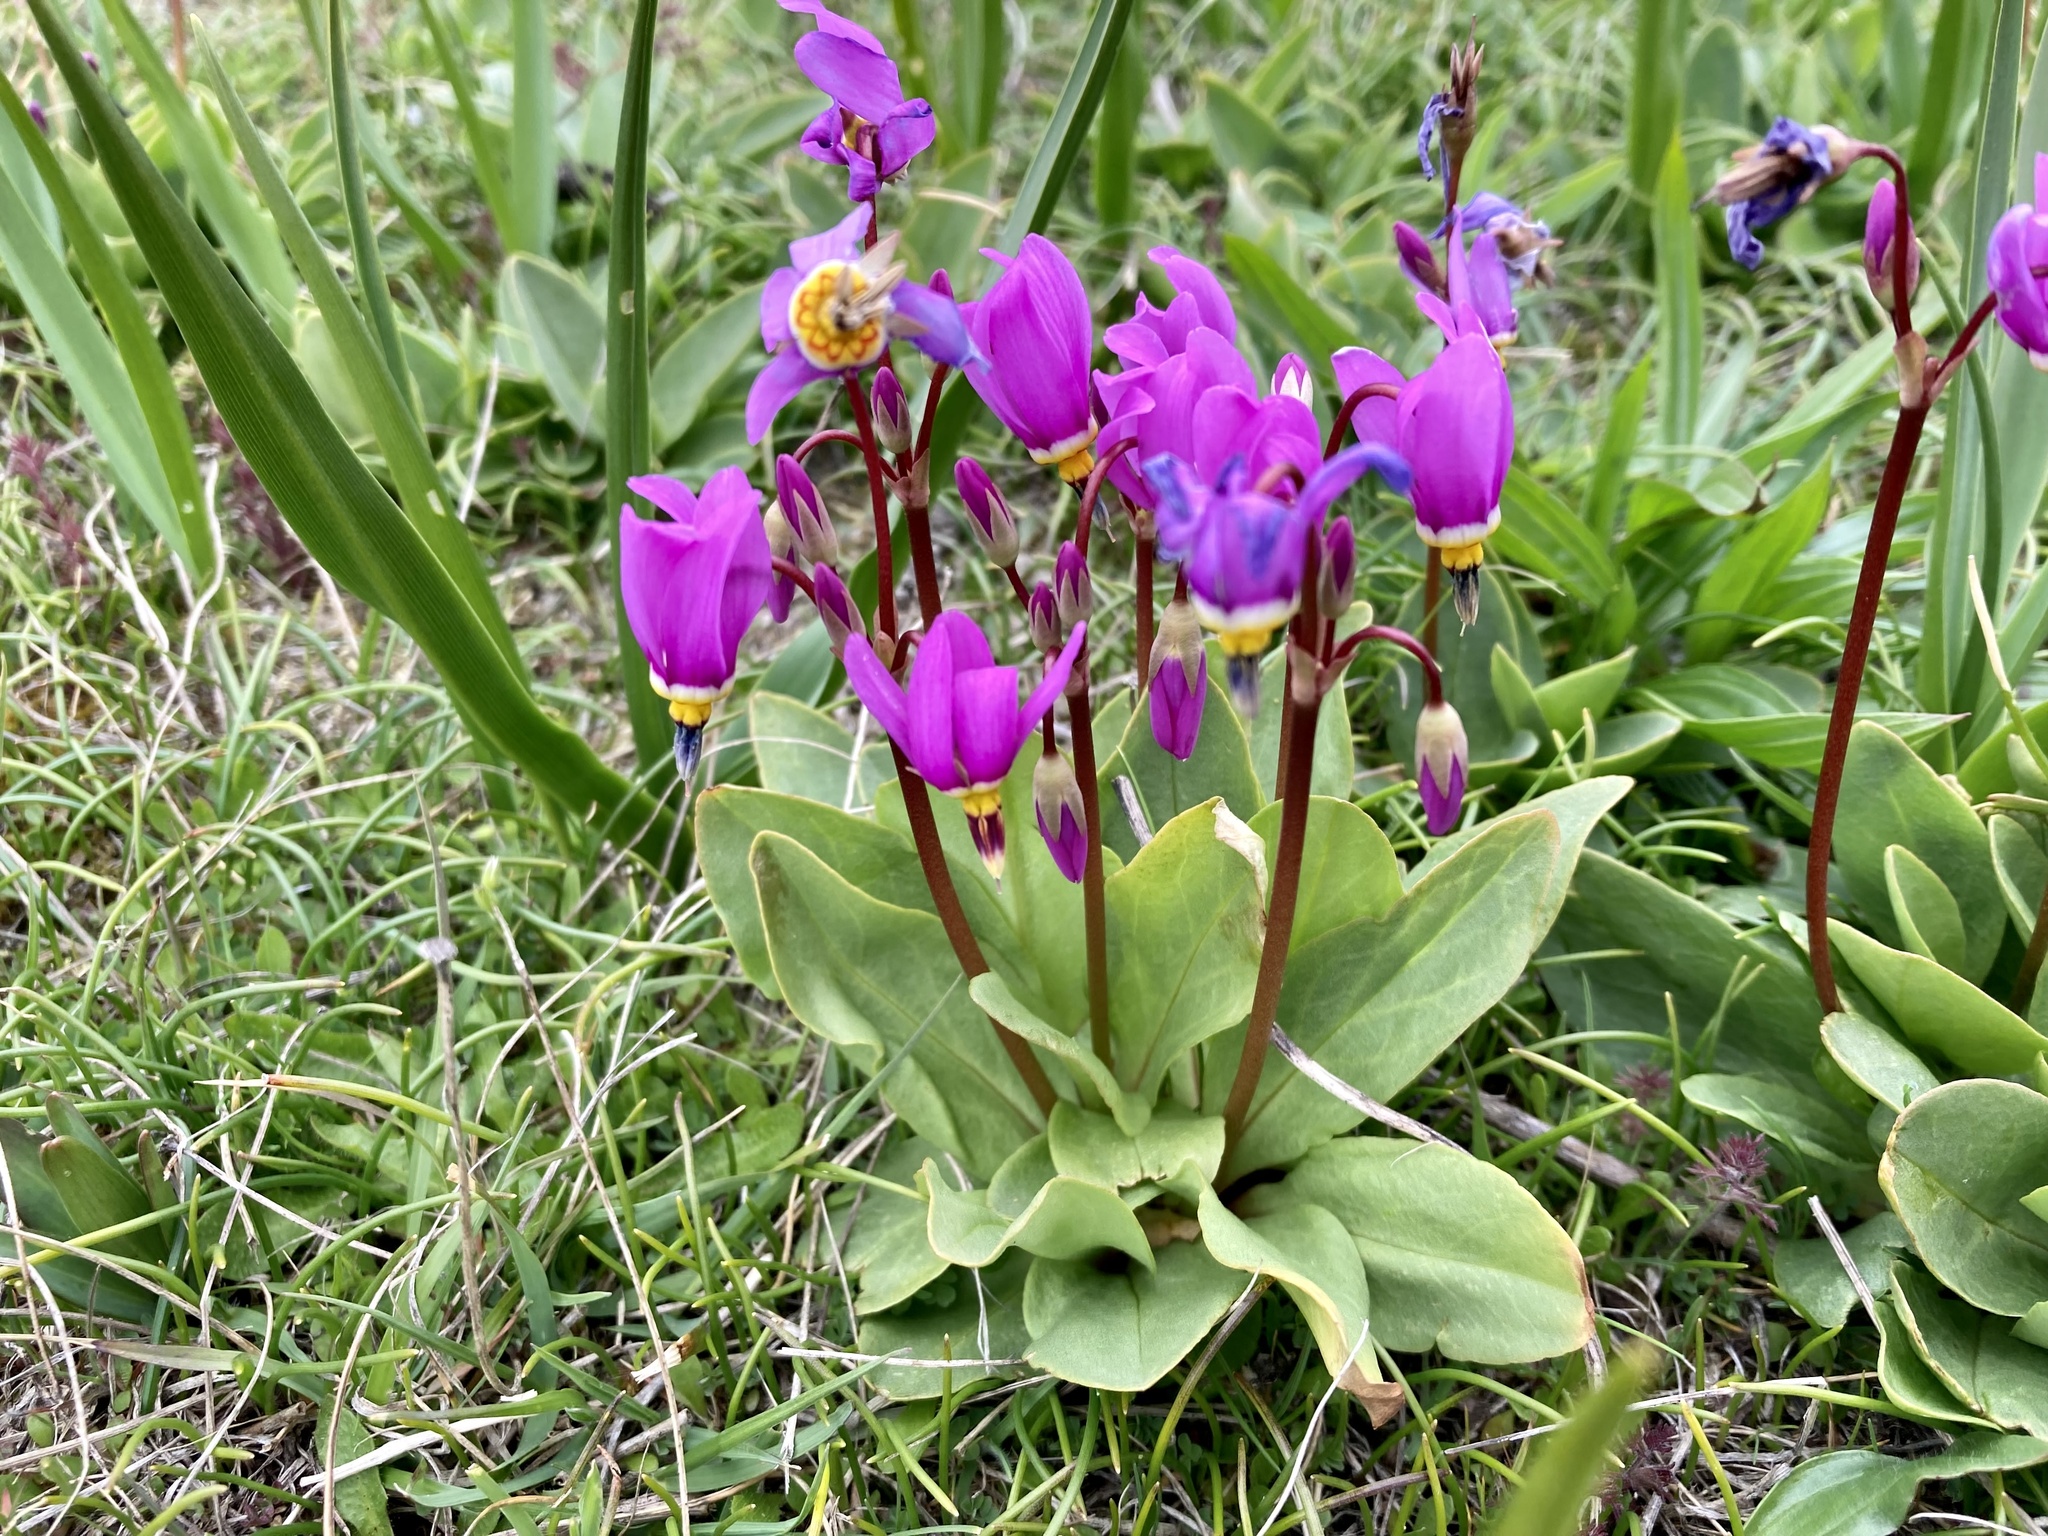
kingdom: Plantae
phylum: Tracheophyta
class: Magnoliopsida
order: Ericales
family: Primulaceae
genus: Dodecatheon
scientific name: Dodecatheon pulchellum
